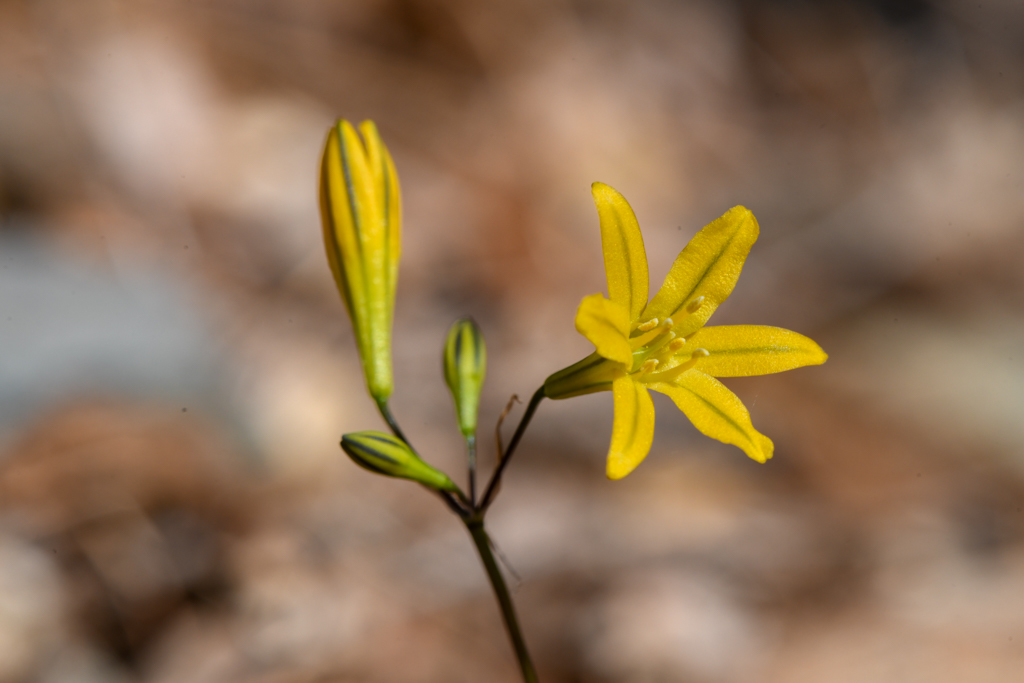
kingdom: Plantae
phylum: Tracheophyta
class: Liliopsida
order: Asparagales
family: Asparagaceae
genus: Triteleia
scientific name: Triteleia crocea
